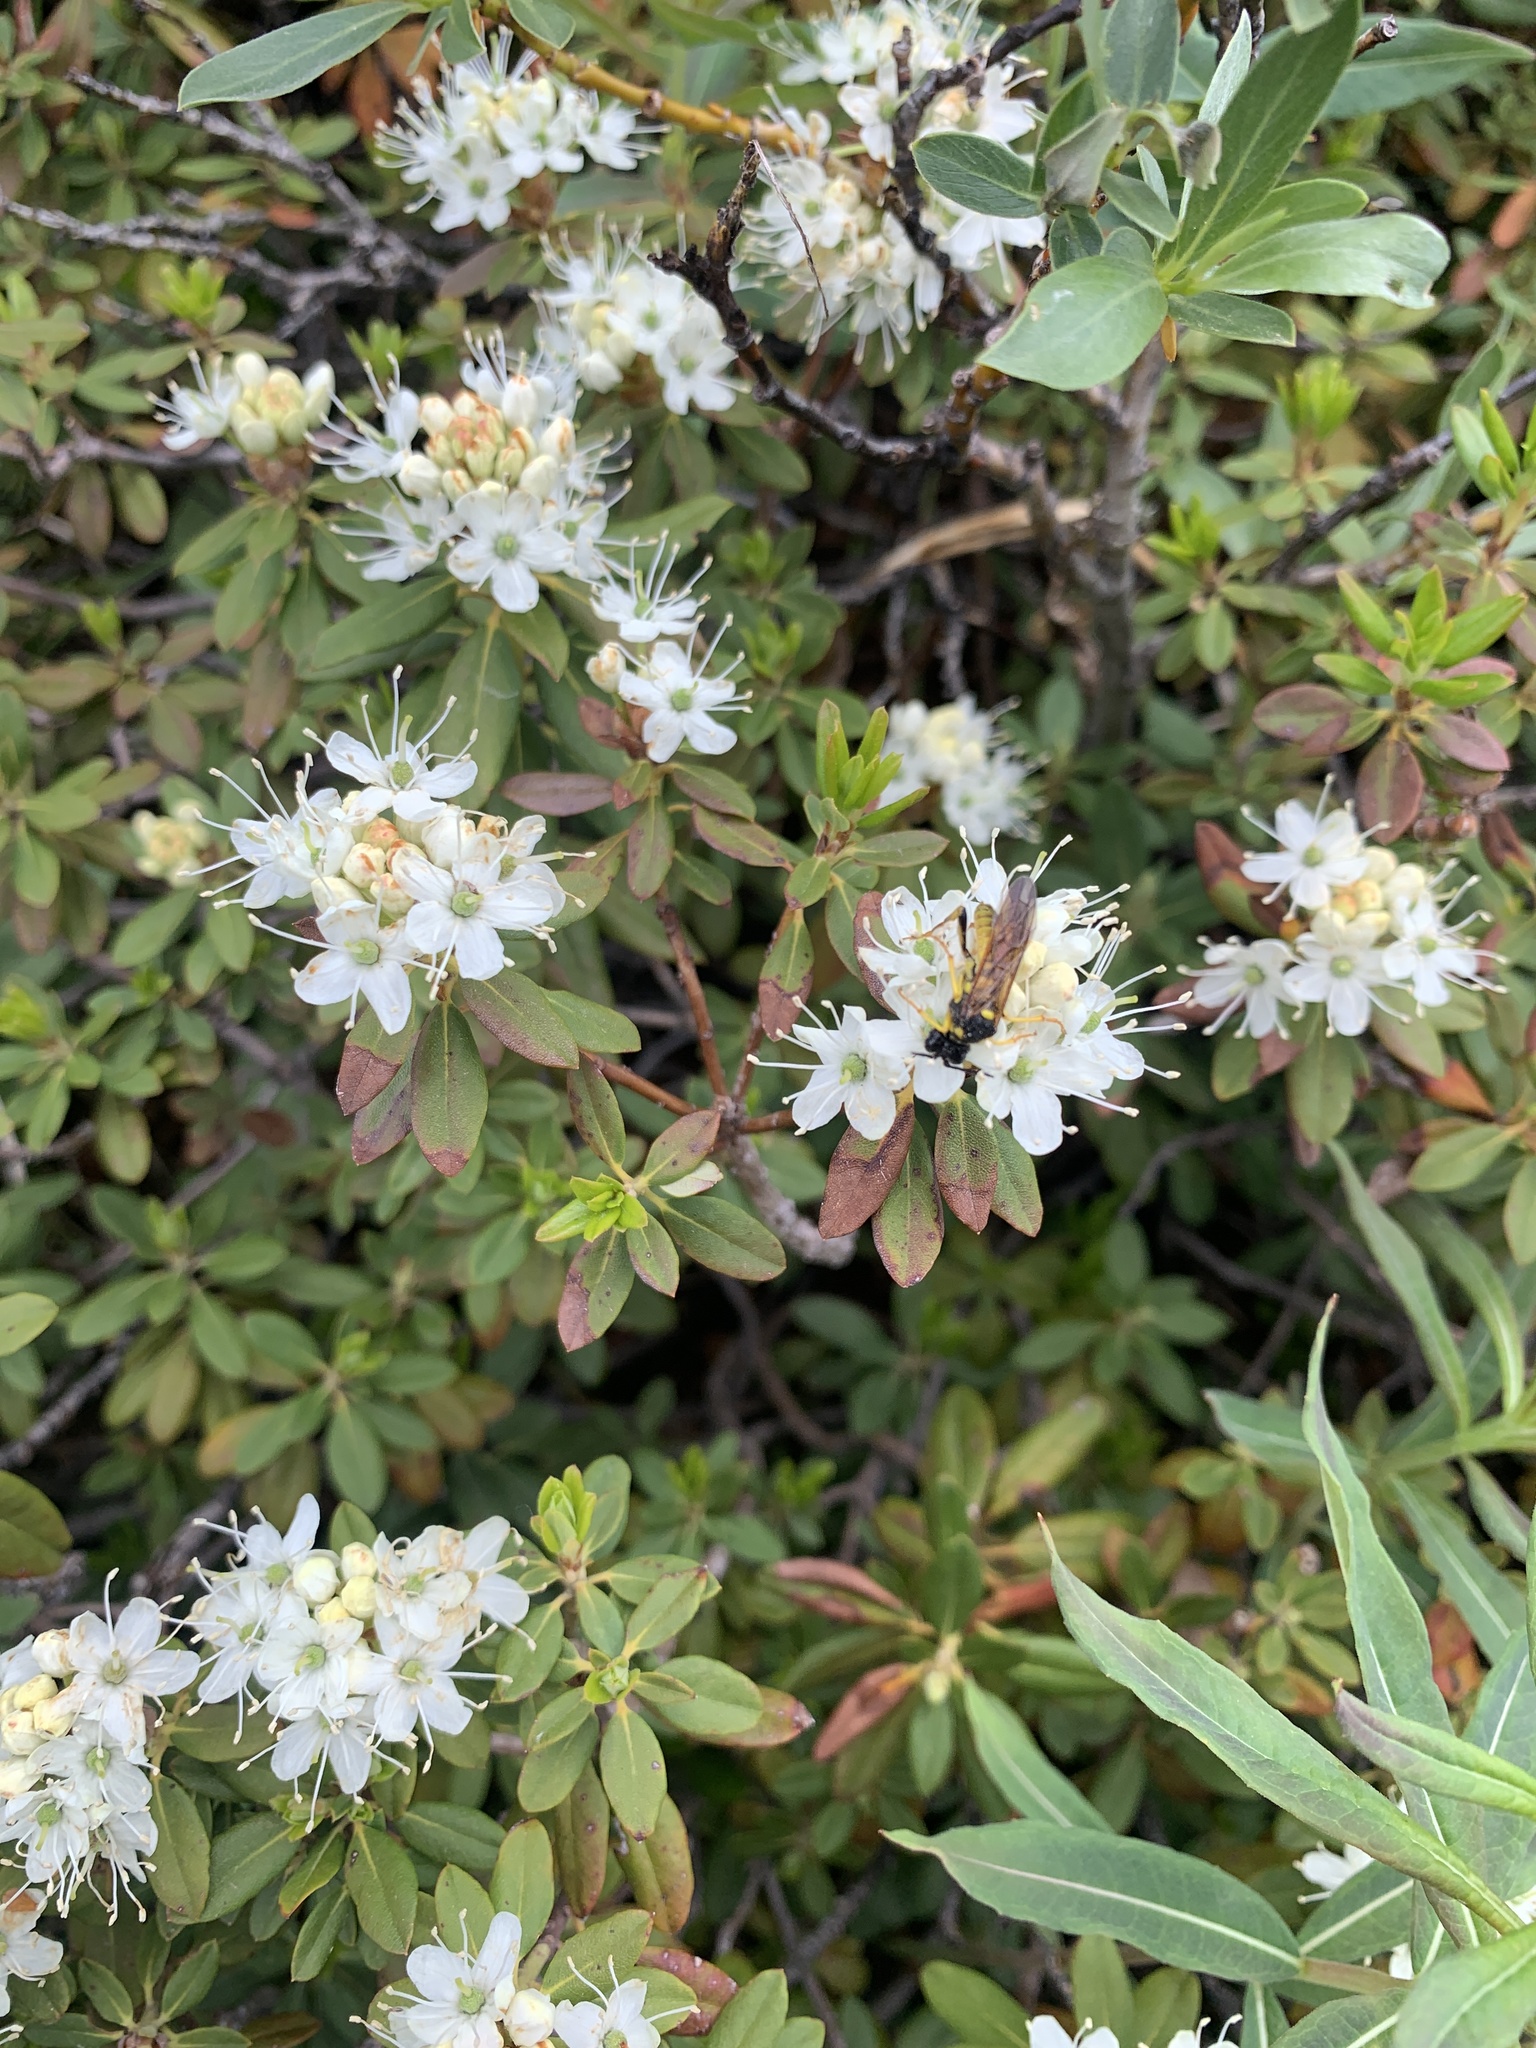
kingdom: Plantae
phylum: Tracheophyta
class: Magnoliopsida
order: Ericales
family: Ericaceae
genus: Rhododendron
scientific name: Rhododendron columbianum
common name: Western labrador tea
